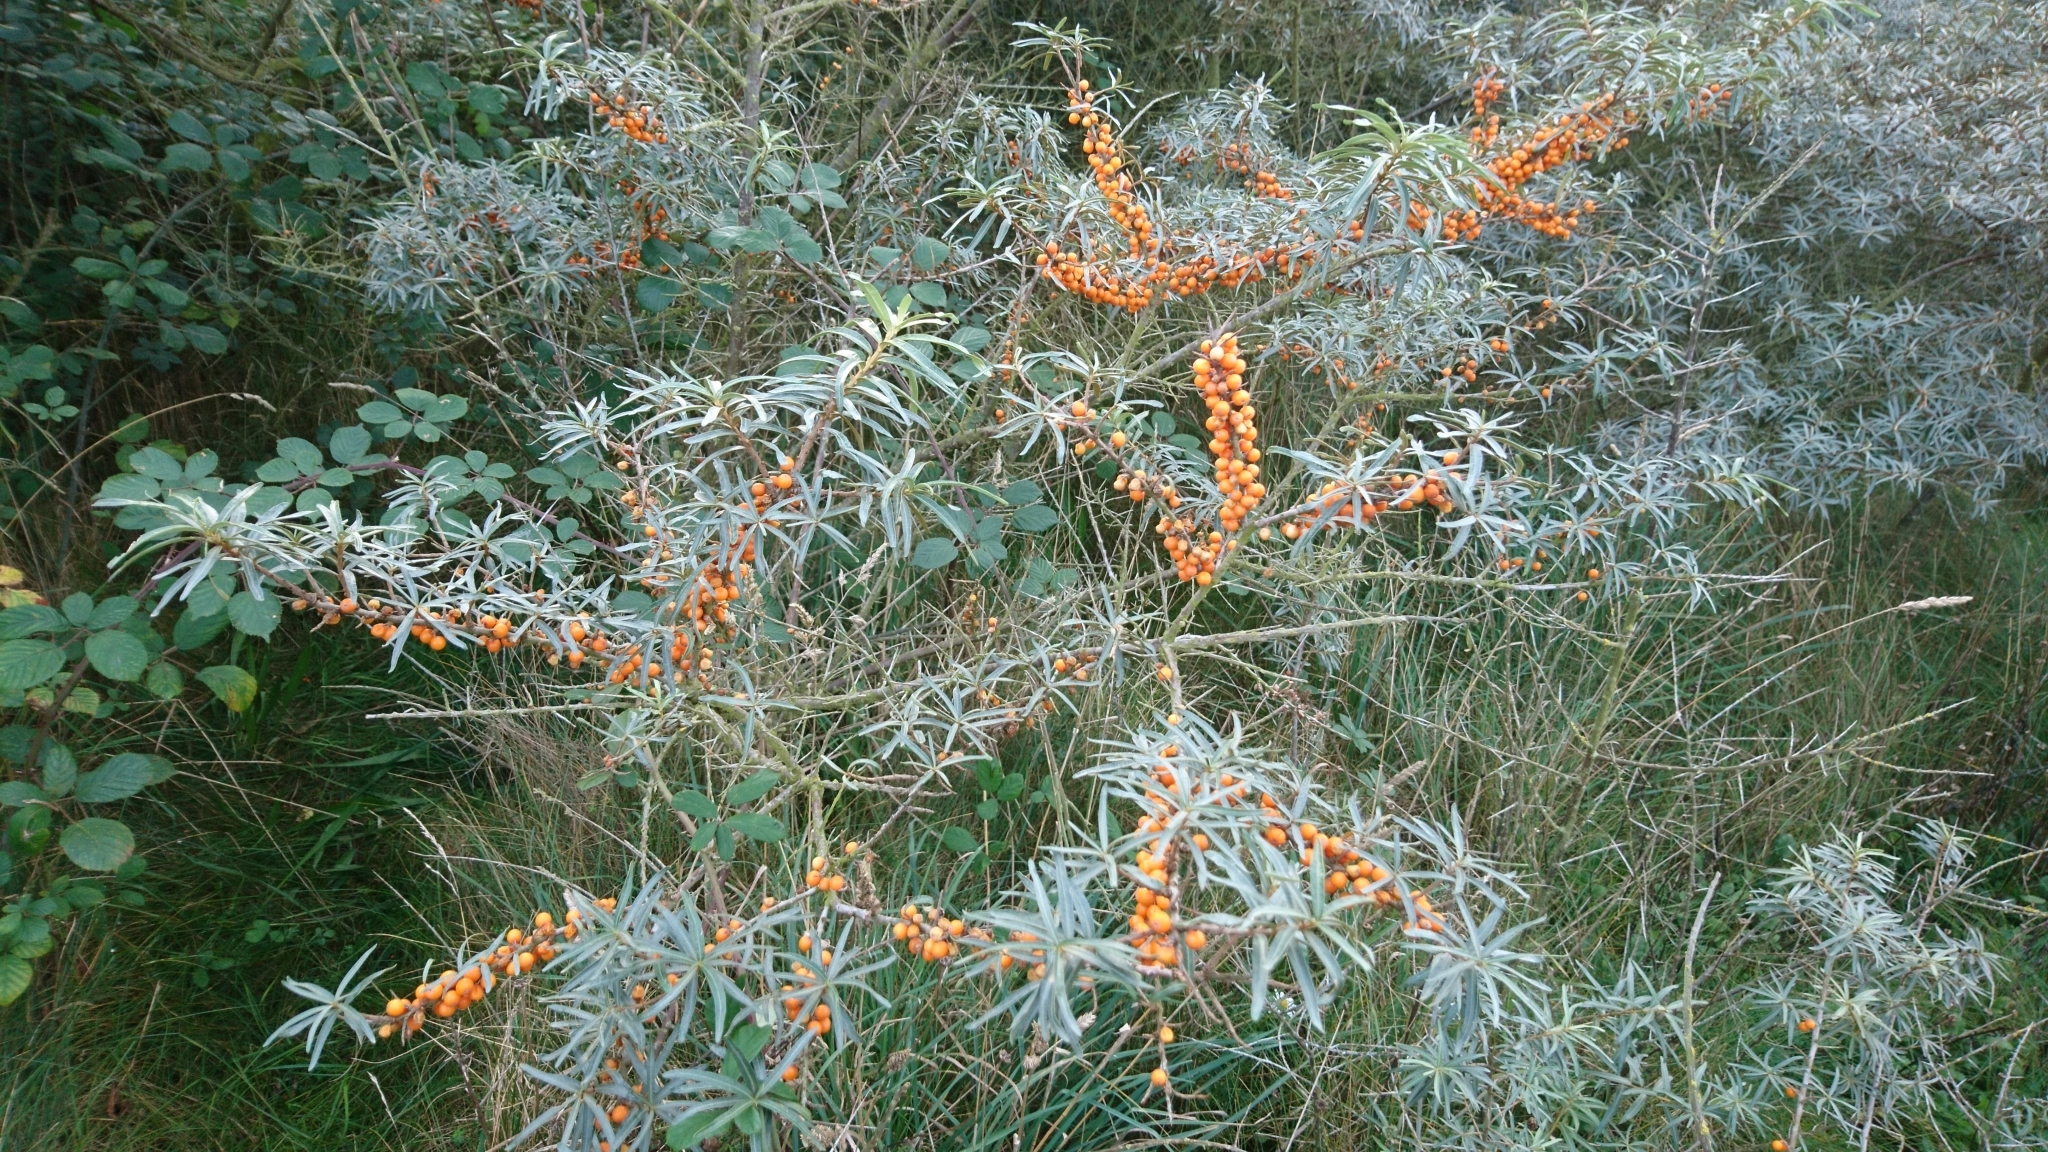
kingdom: Plantae
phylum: Tracheophyta
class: Magnoliopsida
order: Rosales
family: Elaeagnaceae
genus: Hippophae
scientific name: Hippophae rhamnoides
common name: Sea-buckthorn
